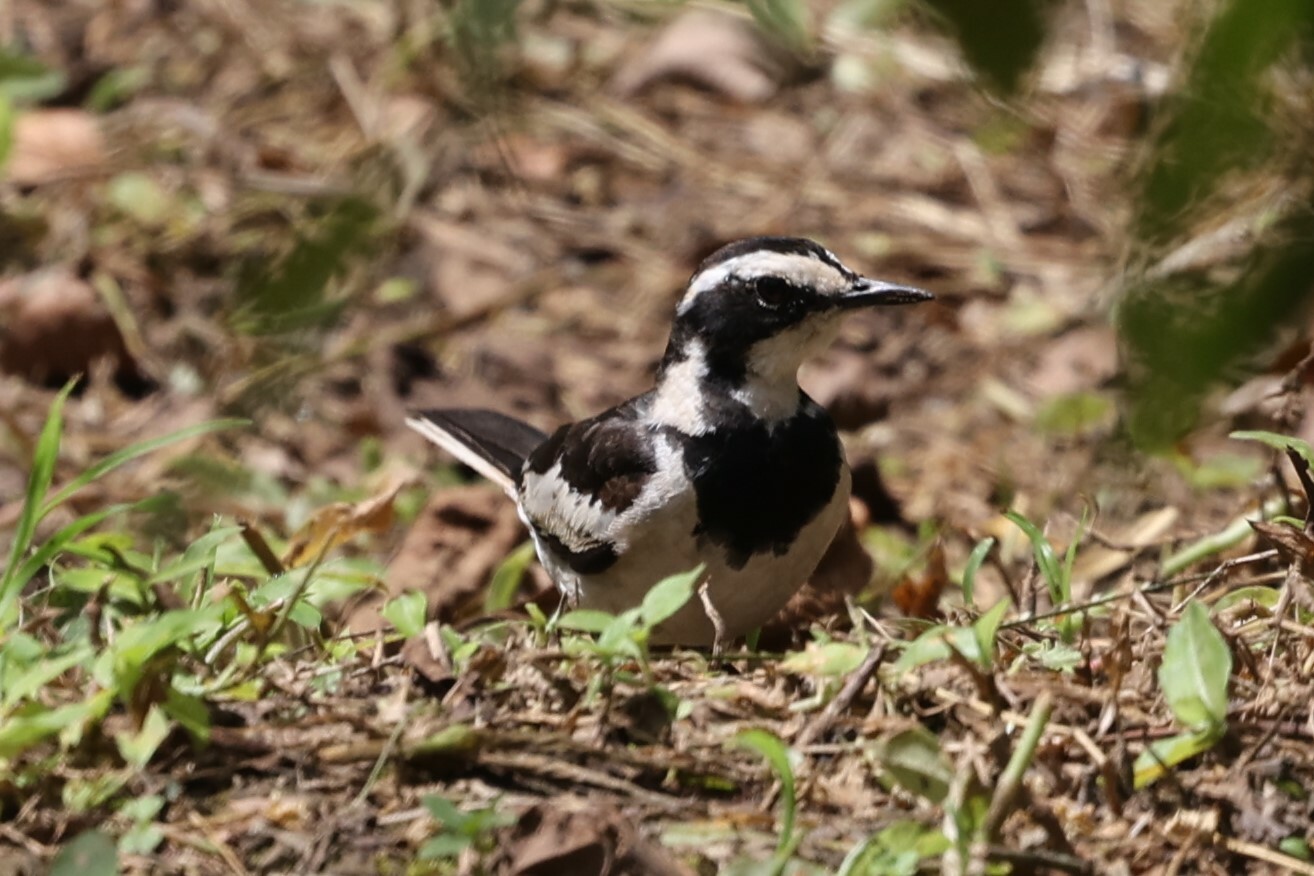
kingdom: Animalia
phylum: Chordata
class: Aves
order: Passeriformes
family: Motacillidae
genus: Motacilla
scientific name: Motacilla aguimp
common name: African pied wagtail
